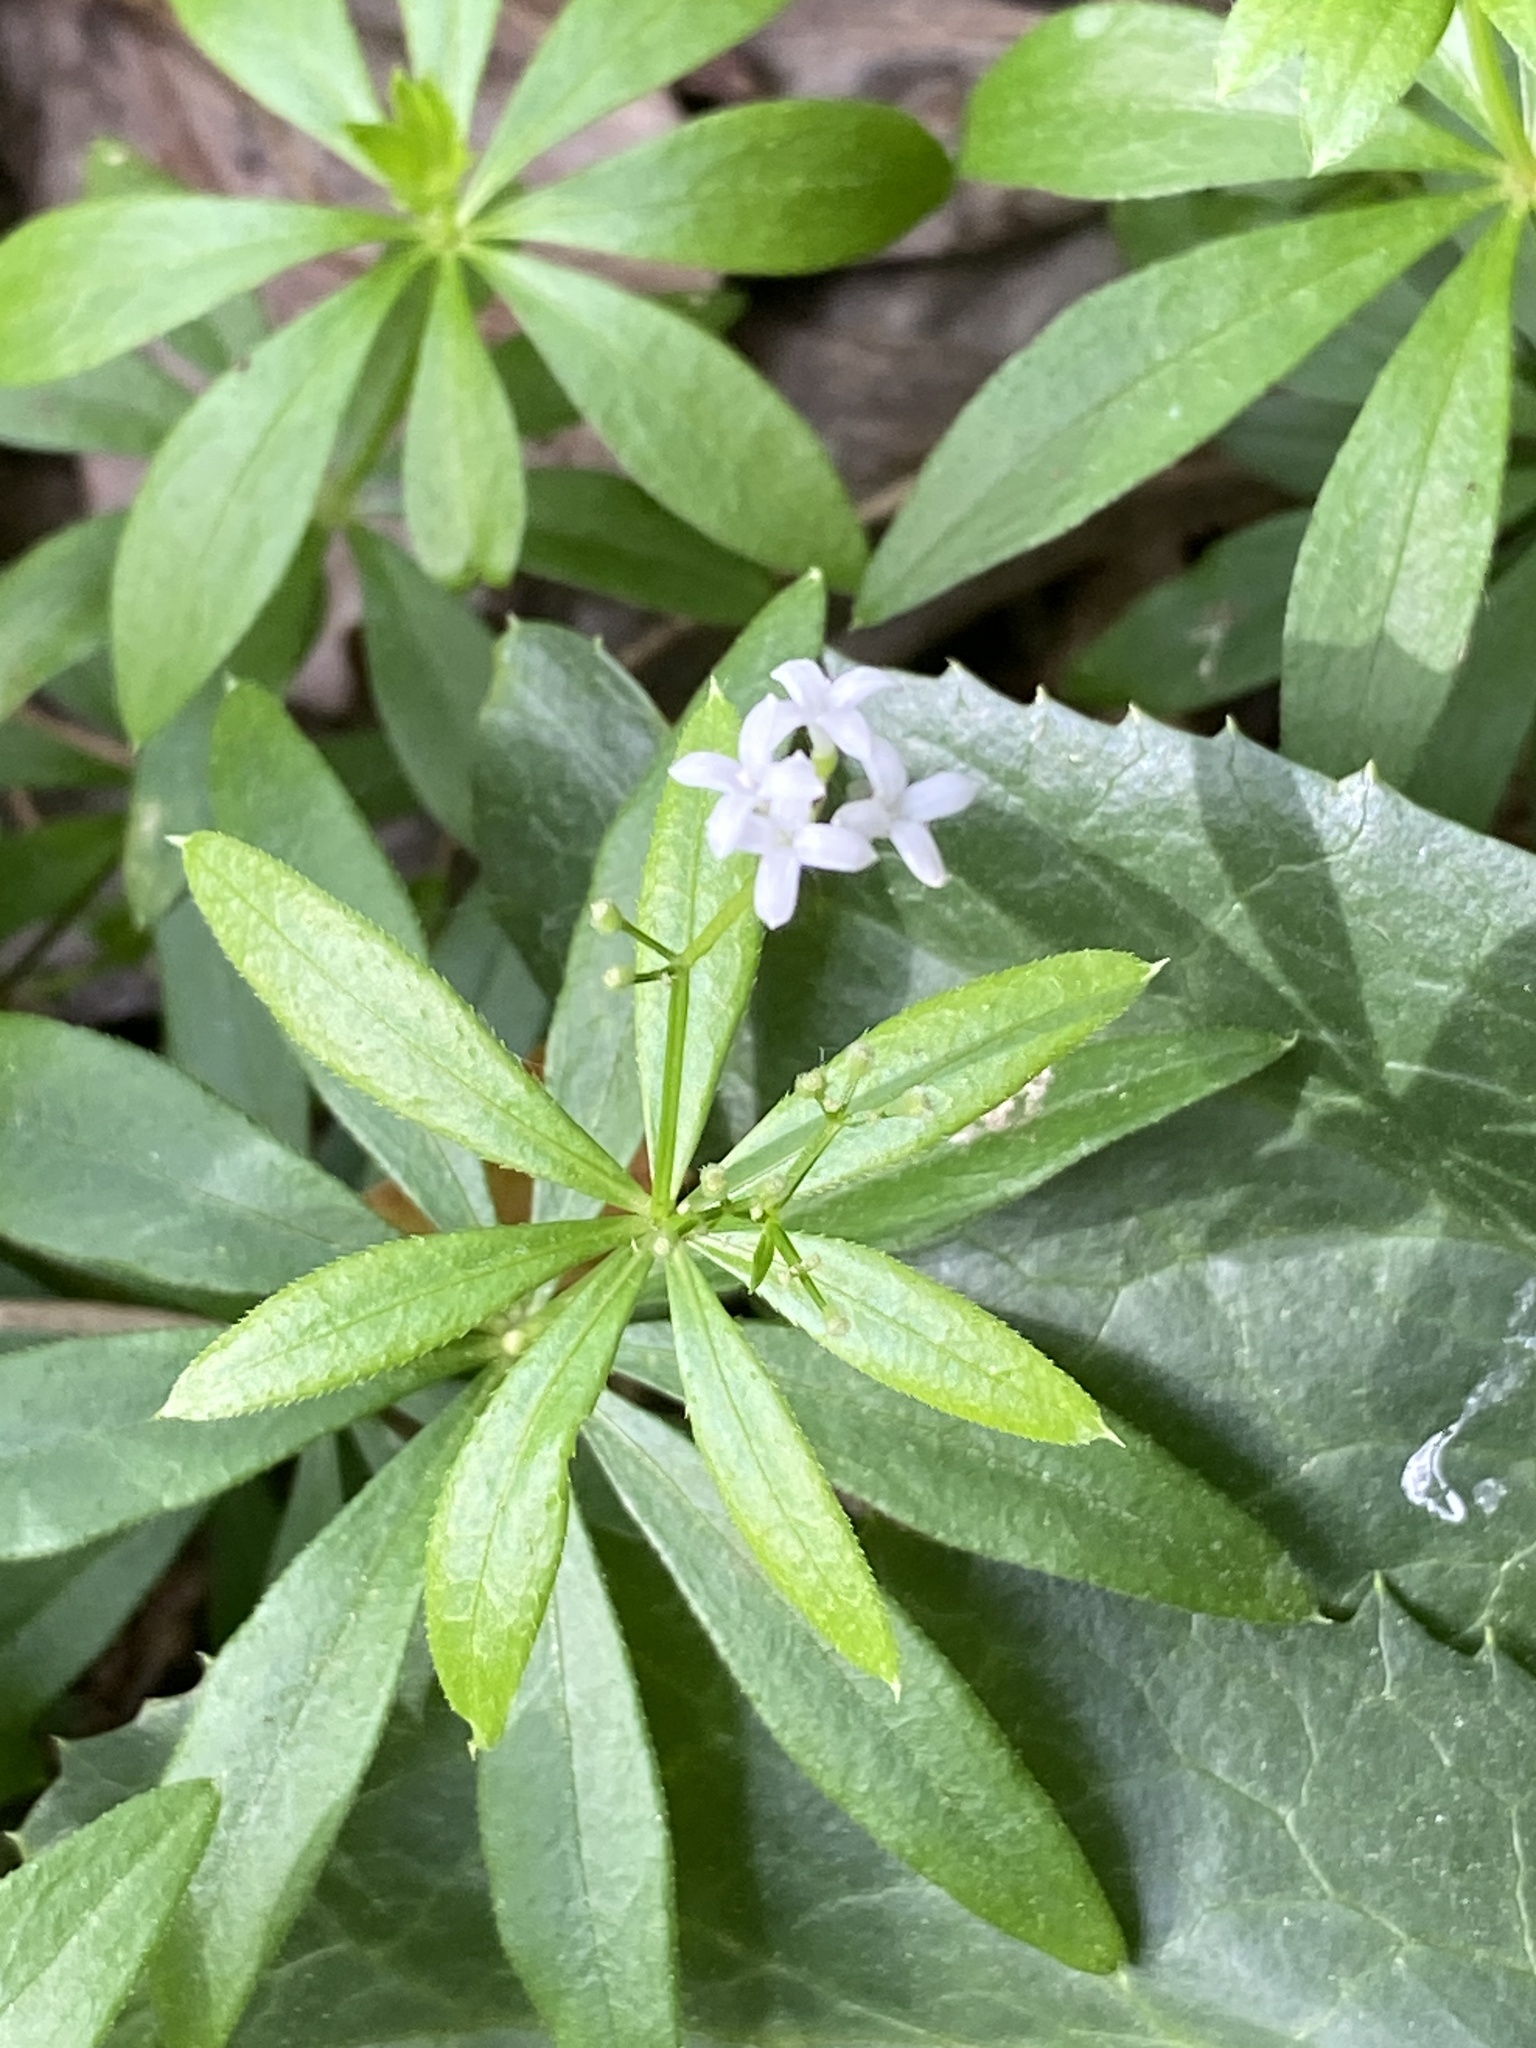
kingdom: Plantae
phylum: Tracheophyta
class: Magnoliopsida
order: Gentianales
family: Rubiaceae
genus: Galium
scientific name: Galium odoratum
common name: Sweet woodruff
